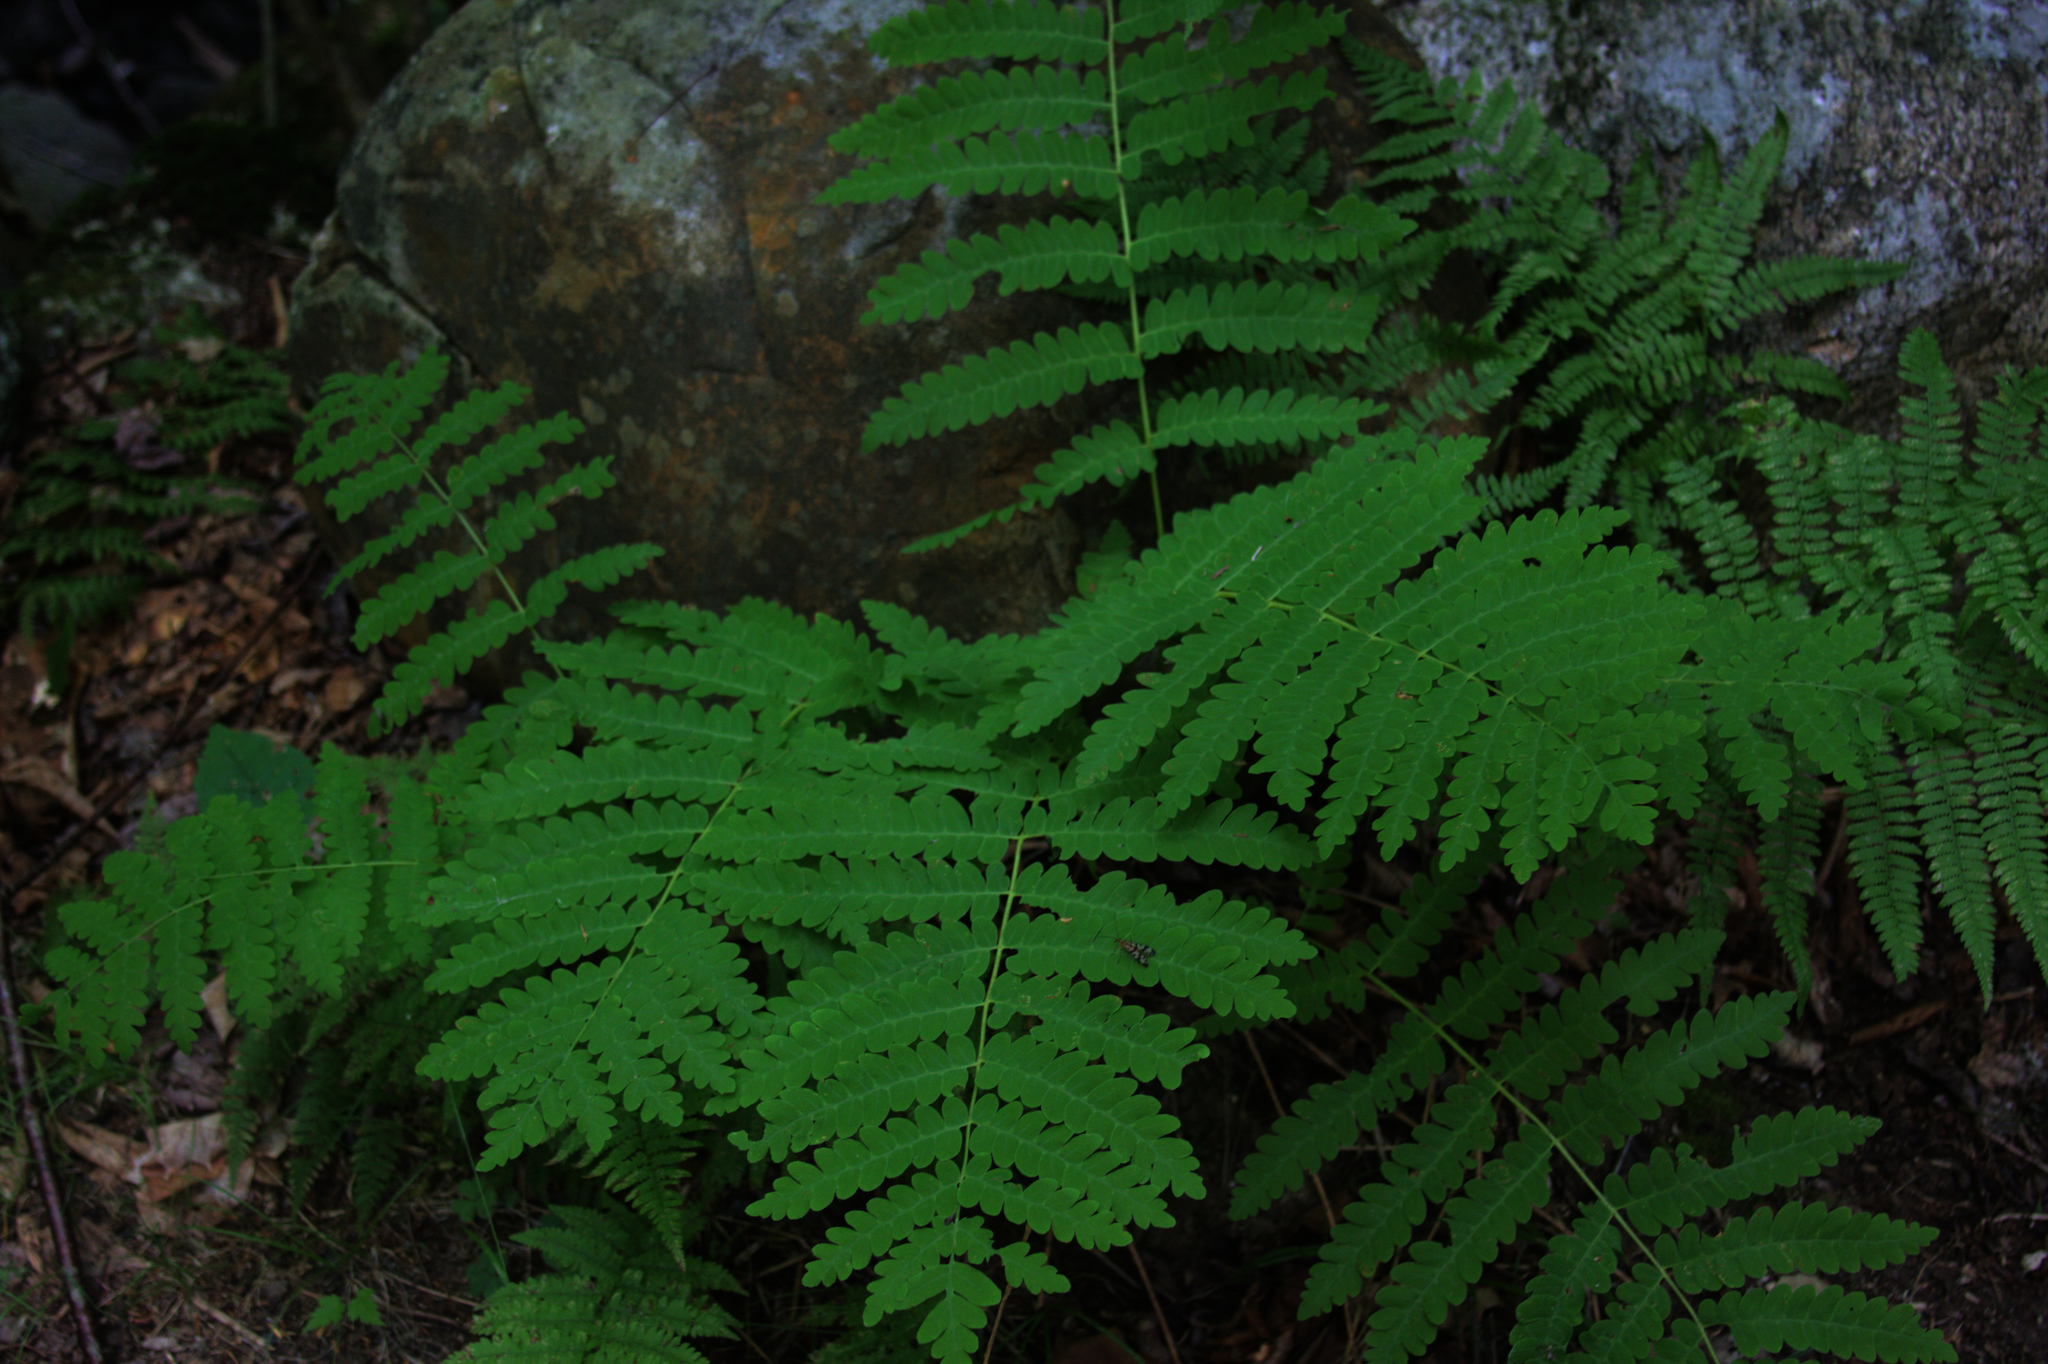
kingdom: Plantae
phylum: Tracheophyta
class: Polypodiopsida
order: Osmundales
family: Osmundaceae
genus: Claytosmunda
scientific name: Claytosmunda claytoniana
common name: Clayton's fern
